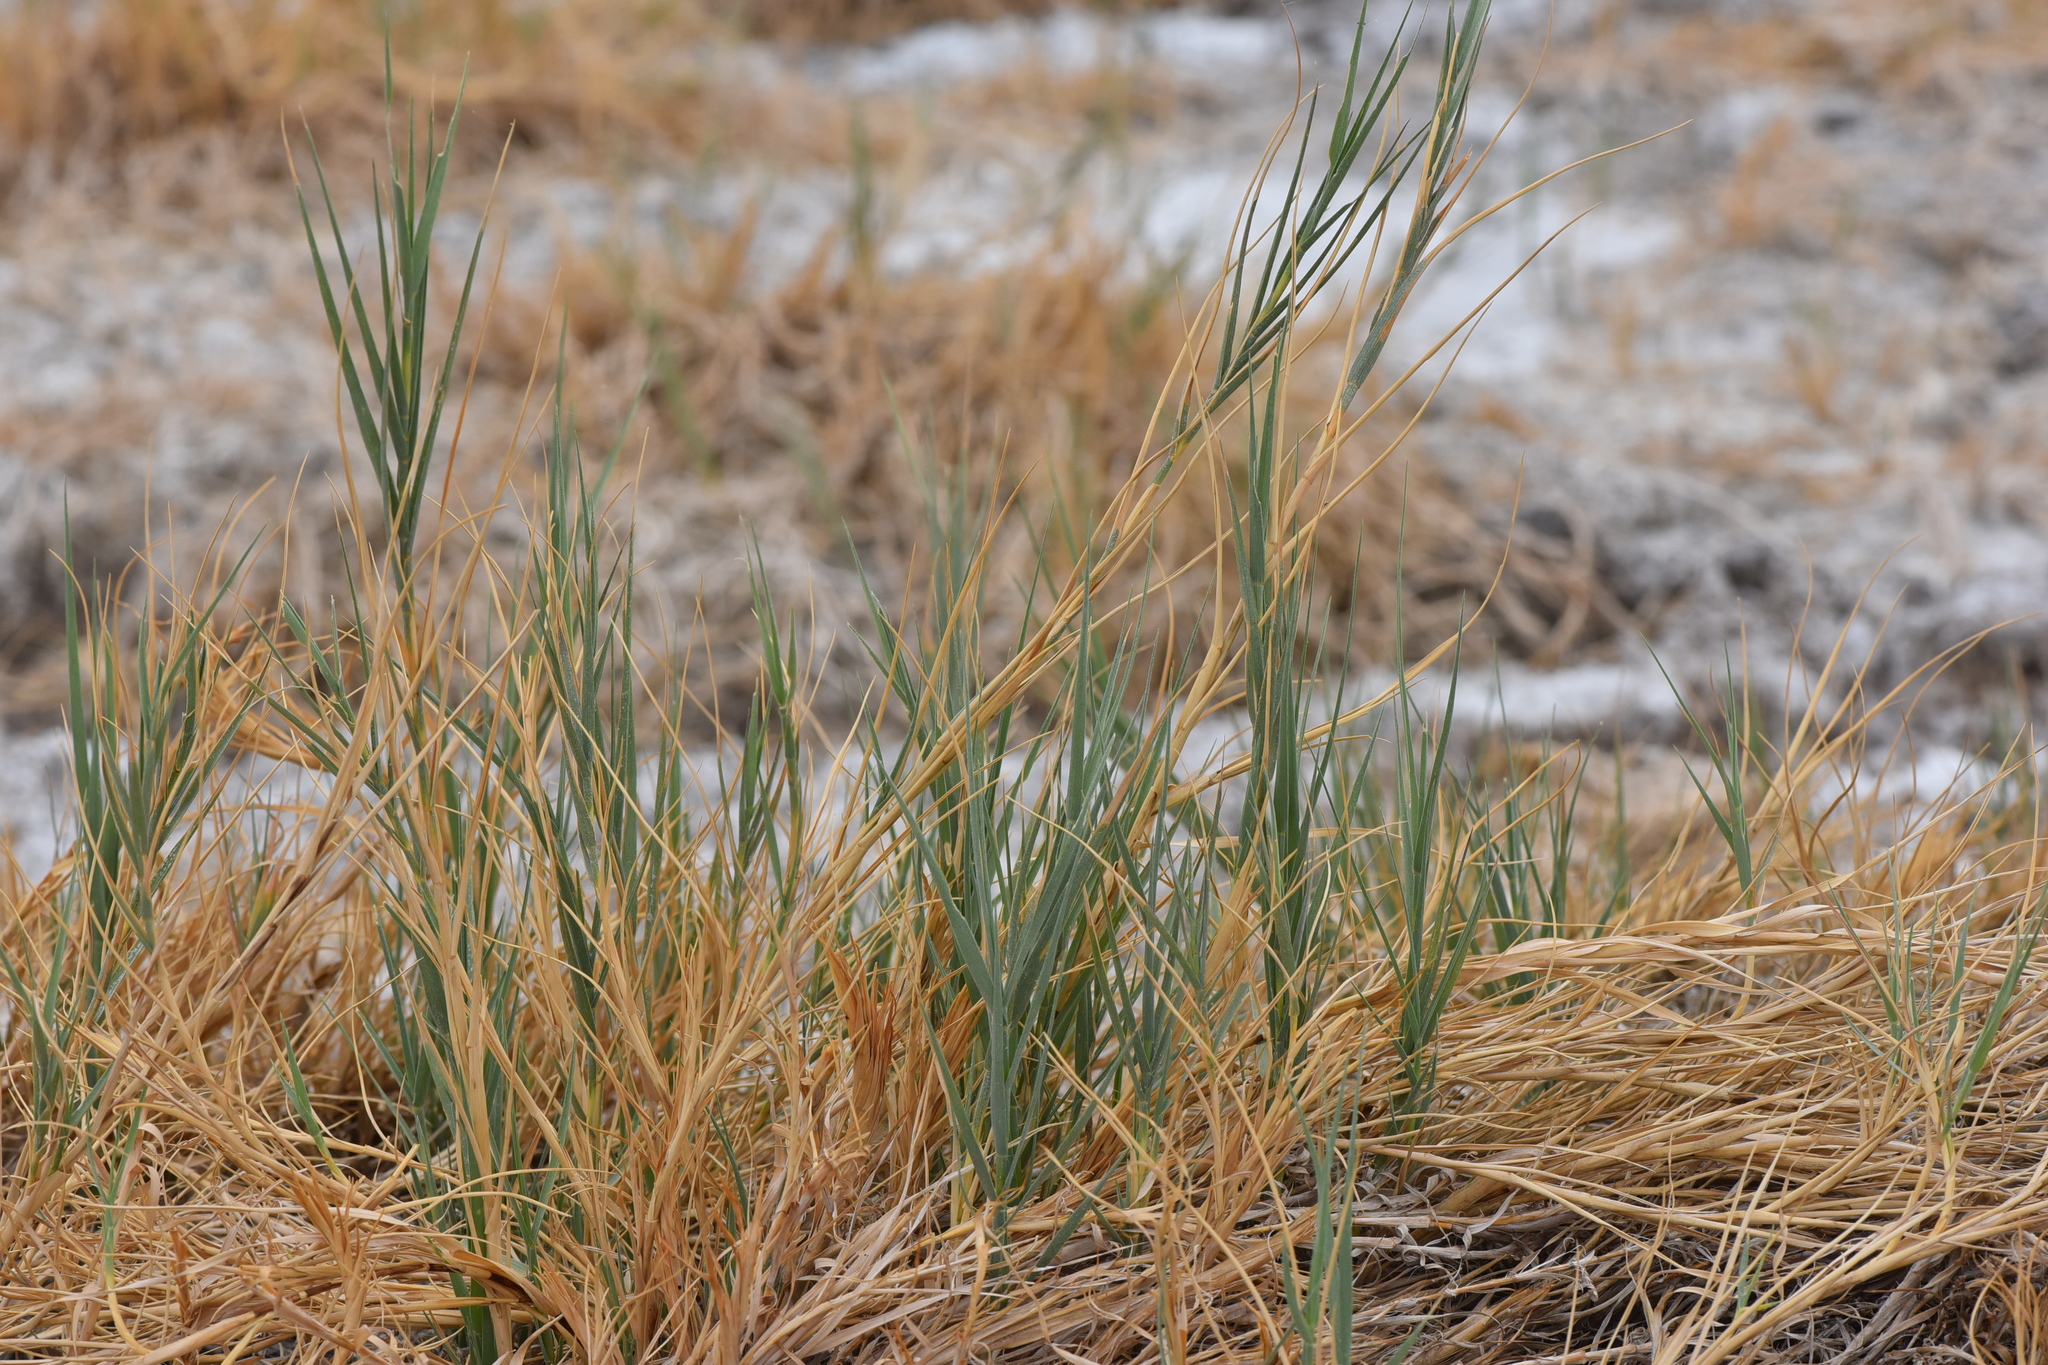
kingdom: Plantae
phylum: Tracheophyta
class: Liliopsida
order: Poales
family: Poaceae
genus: Distichlis
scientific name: Distichlis spicata
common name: Saltgrass
